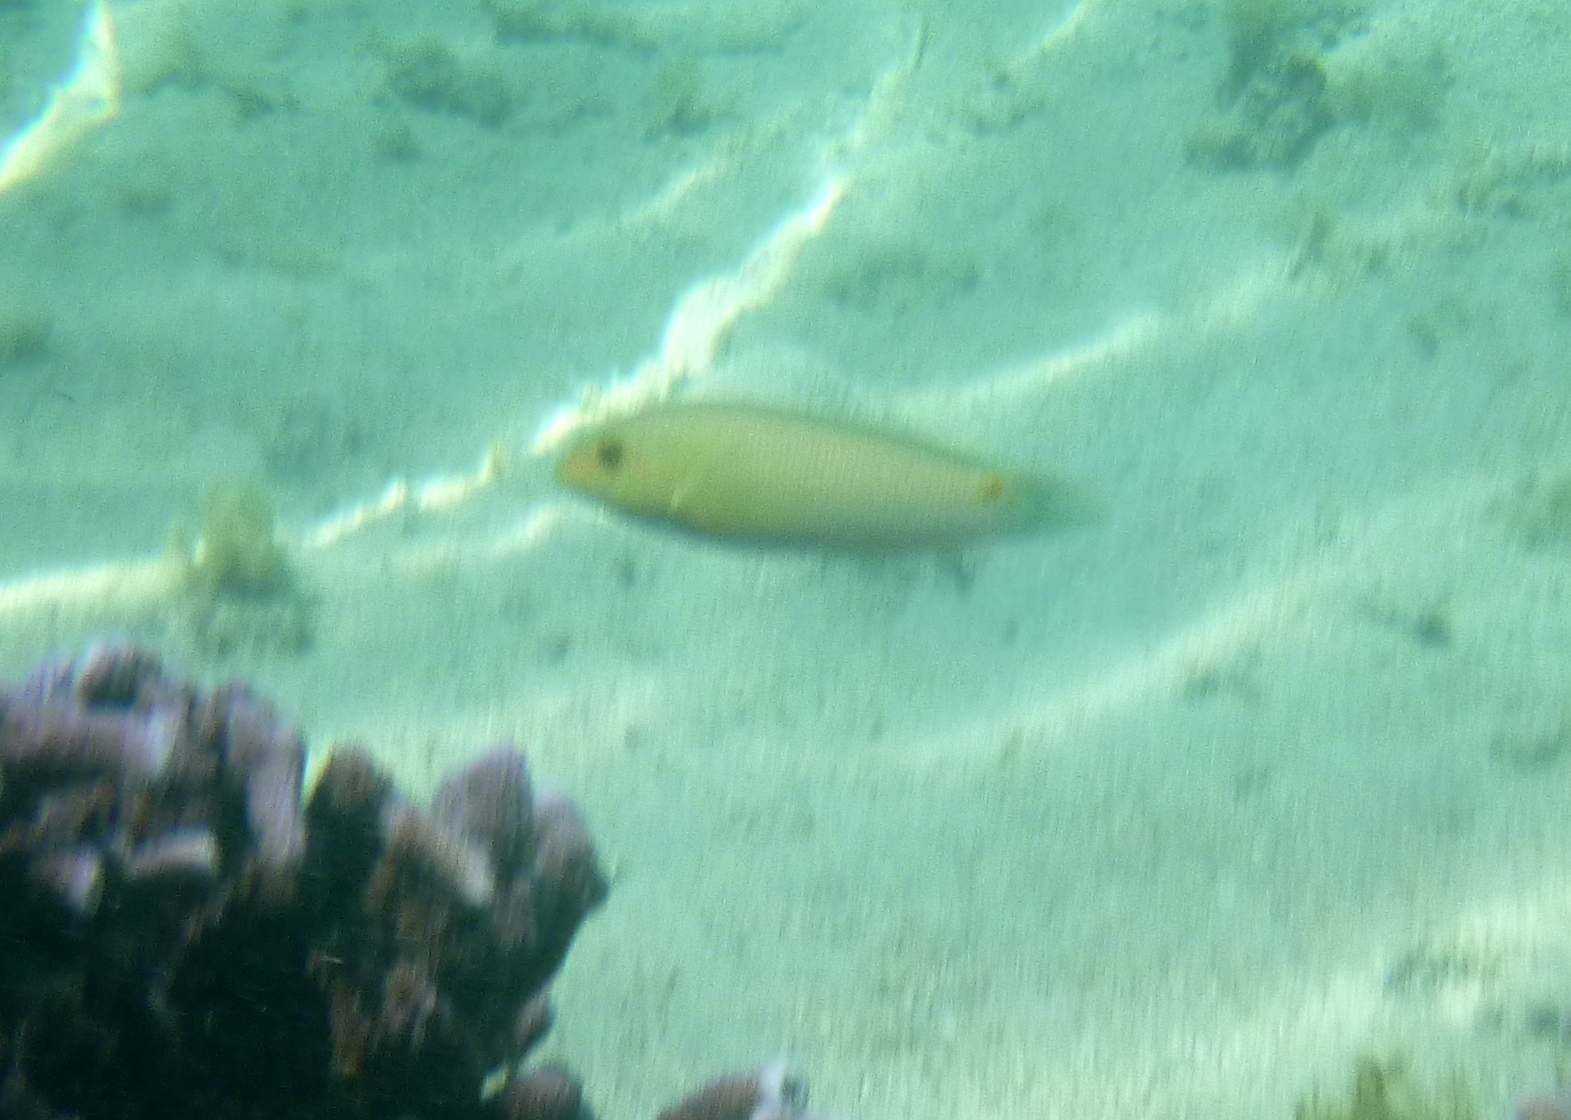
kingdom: Animalia
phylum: Chordata
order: Perciformes
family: Labridae
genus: Halichoeres
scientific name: Halichoeres trimaculatus
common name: Three-spot wrasse
